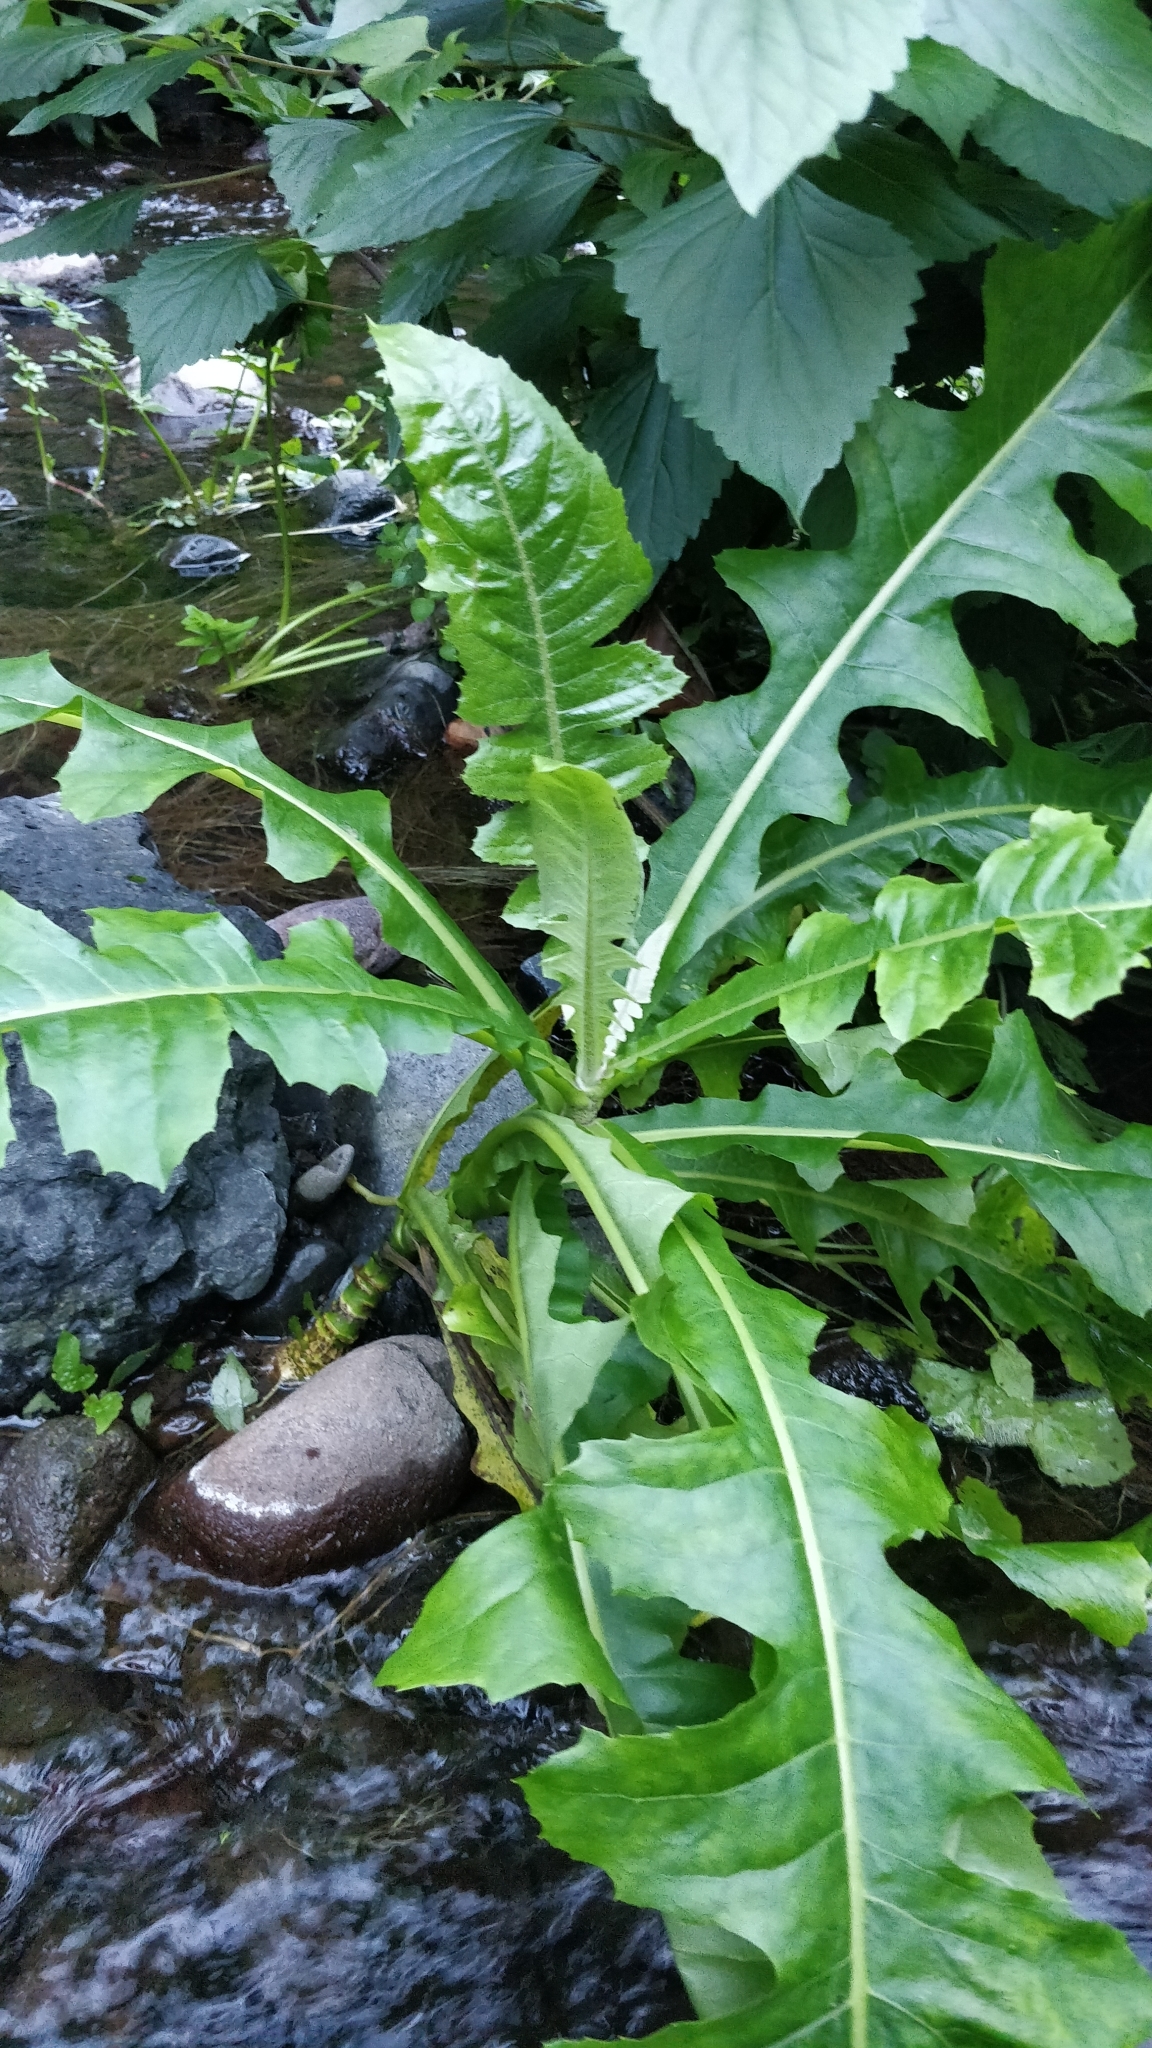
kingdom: Plantae
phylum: Tracheophyta
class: Magnoliopsida
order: Asterales
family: Asteraceae
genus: Sonchus
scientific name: Sonchus fruticosus
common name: Shrubby sow-thistle
